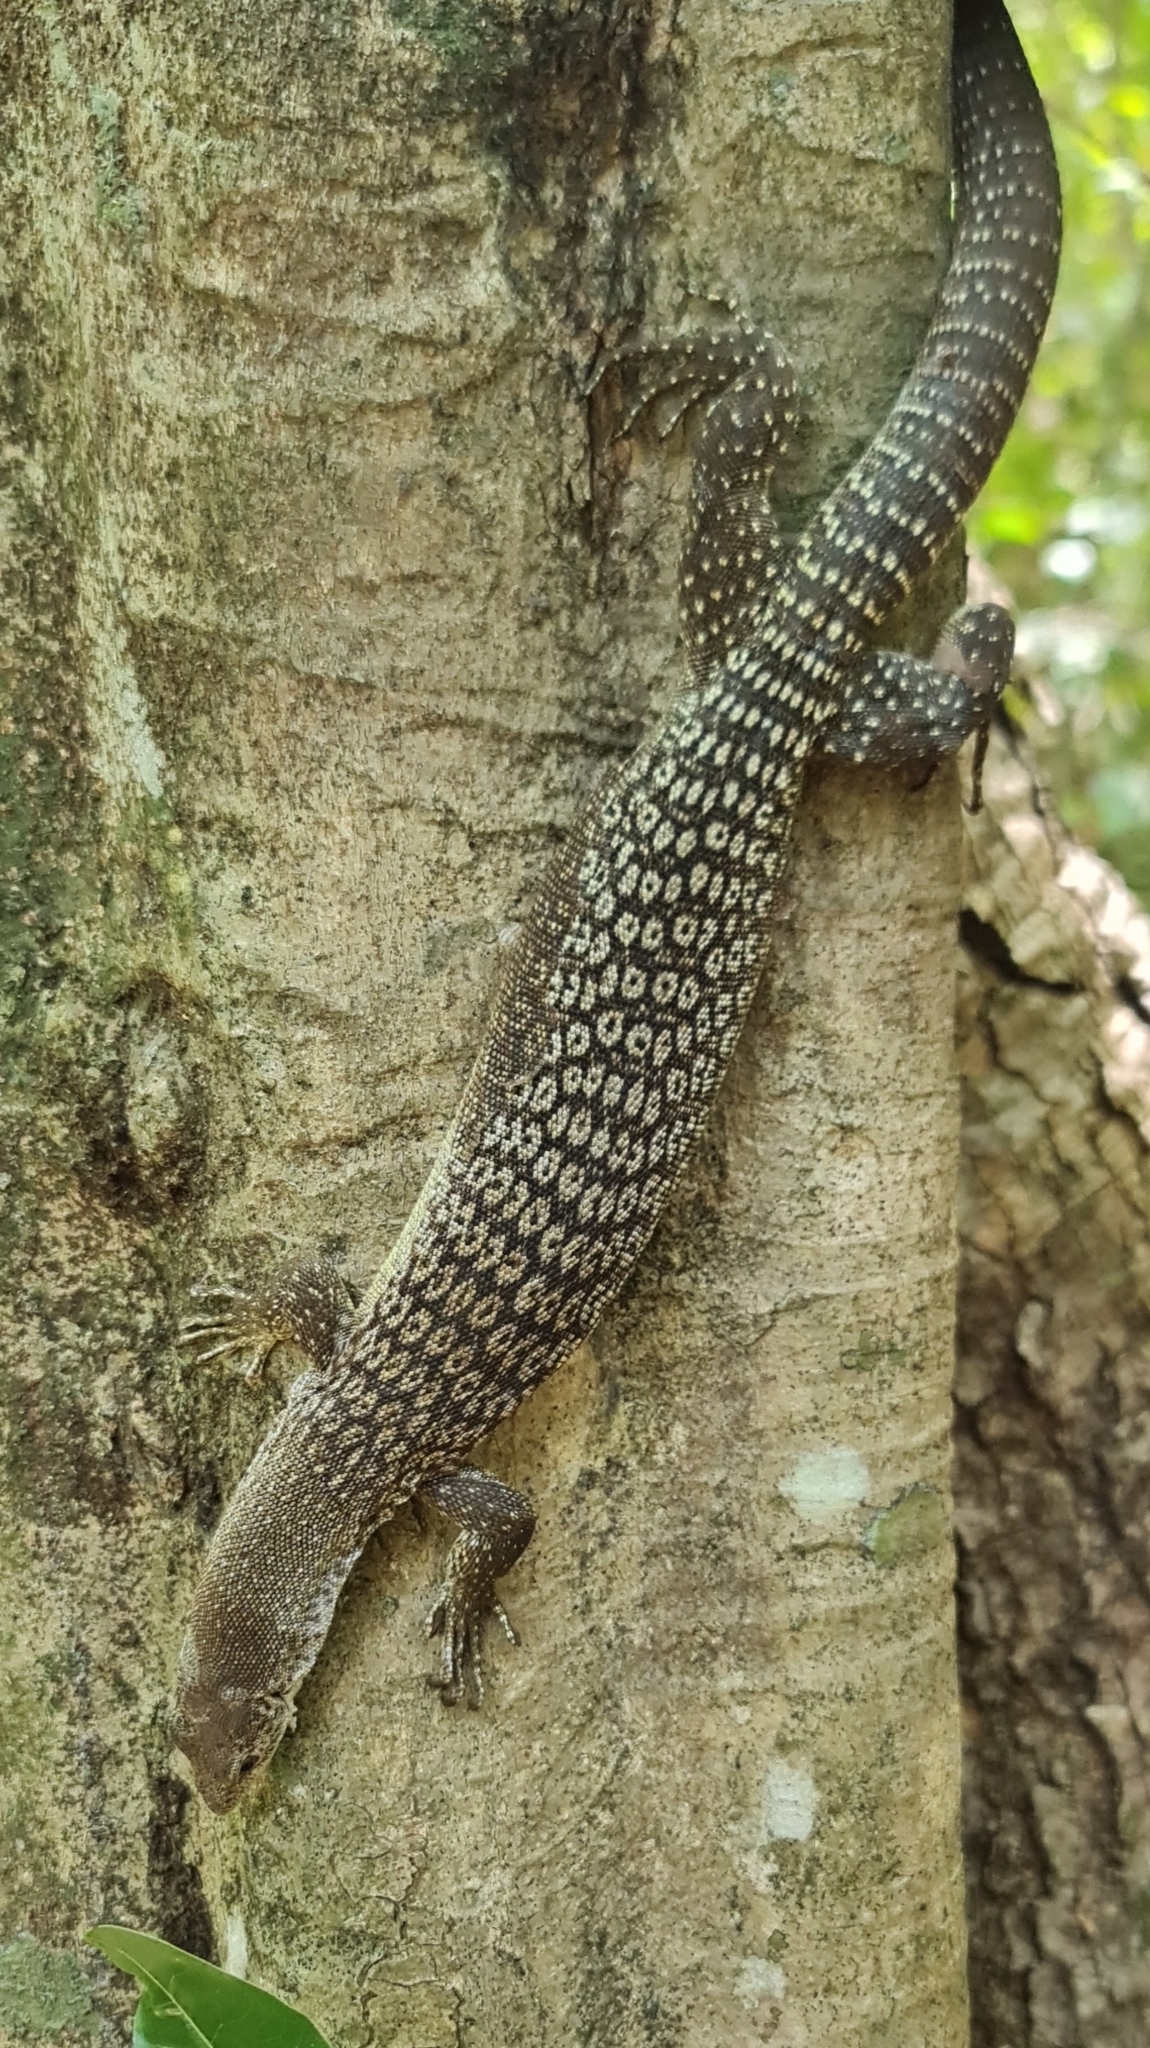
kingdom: Animalia
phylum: Chordata
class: Squamata
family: Varanidae
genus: Varanus
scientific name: Varanus scalaris
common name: Banded tree monitor
